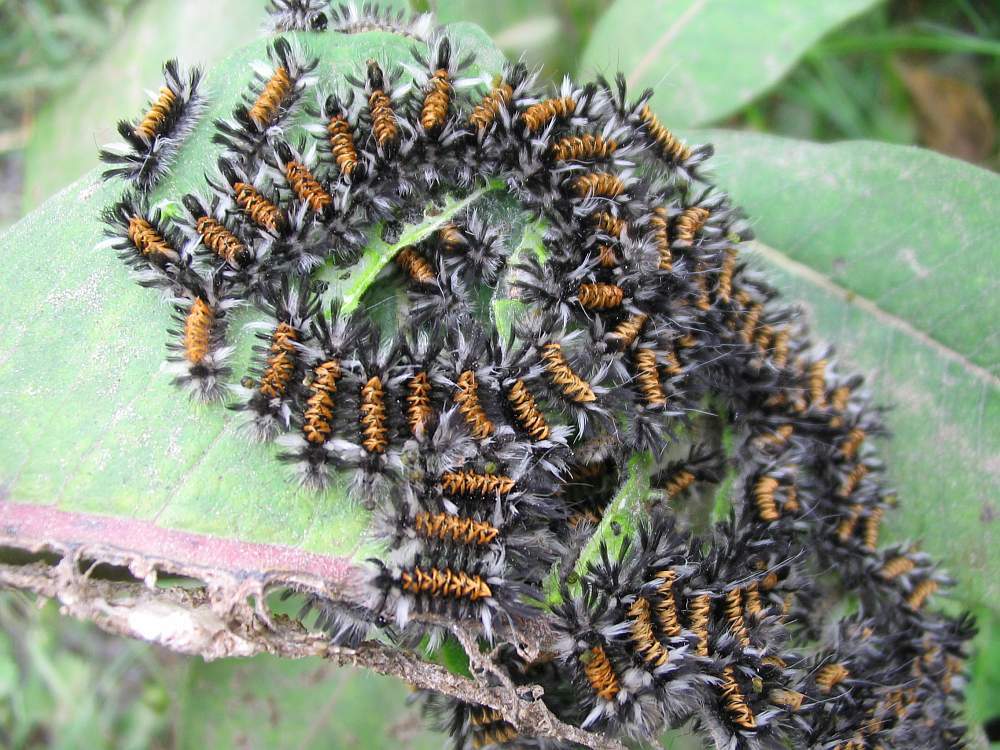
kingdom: Animalia
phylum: Arthropoda
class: Insecta
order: Lepidoptera
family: Erebidae
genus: Euchaetes
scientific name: Euchaetes egle
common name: Milkweed tussock moth
